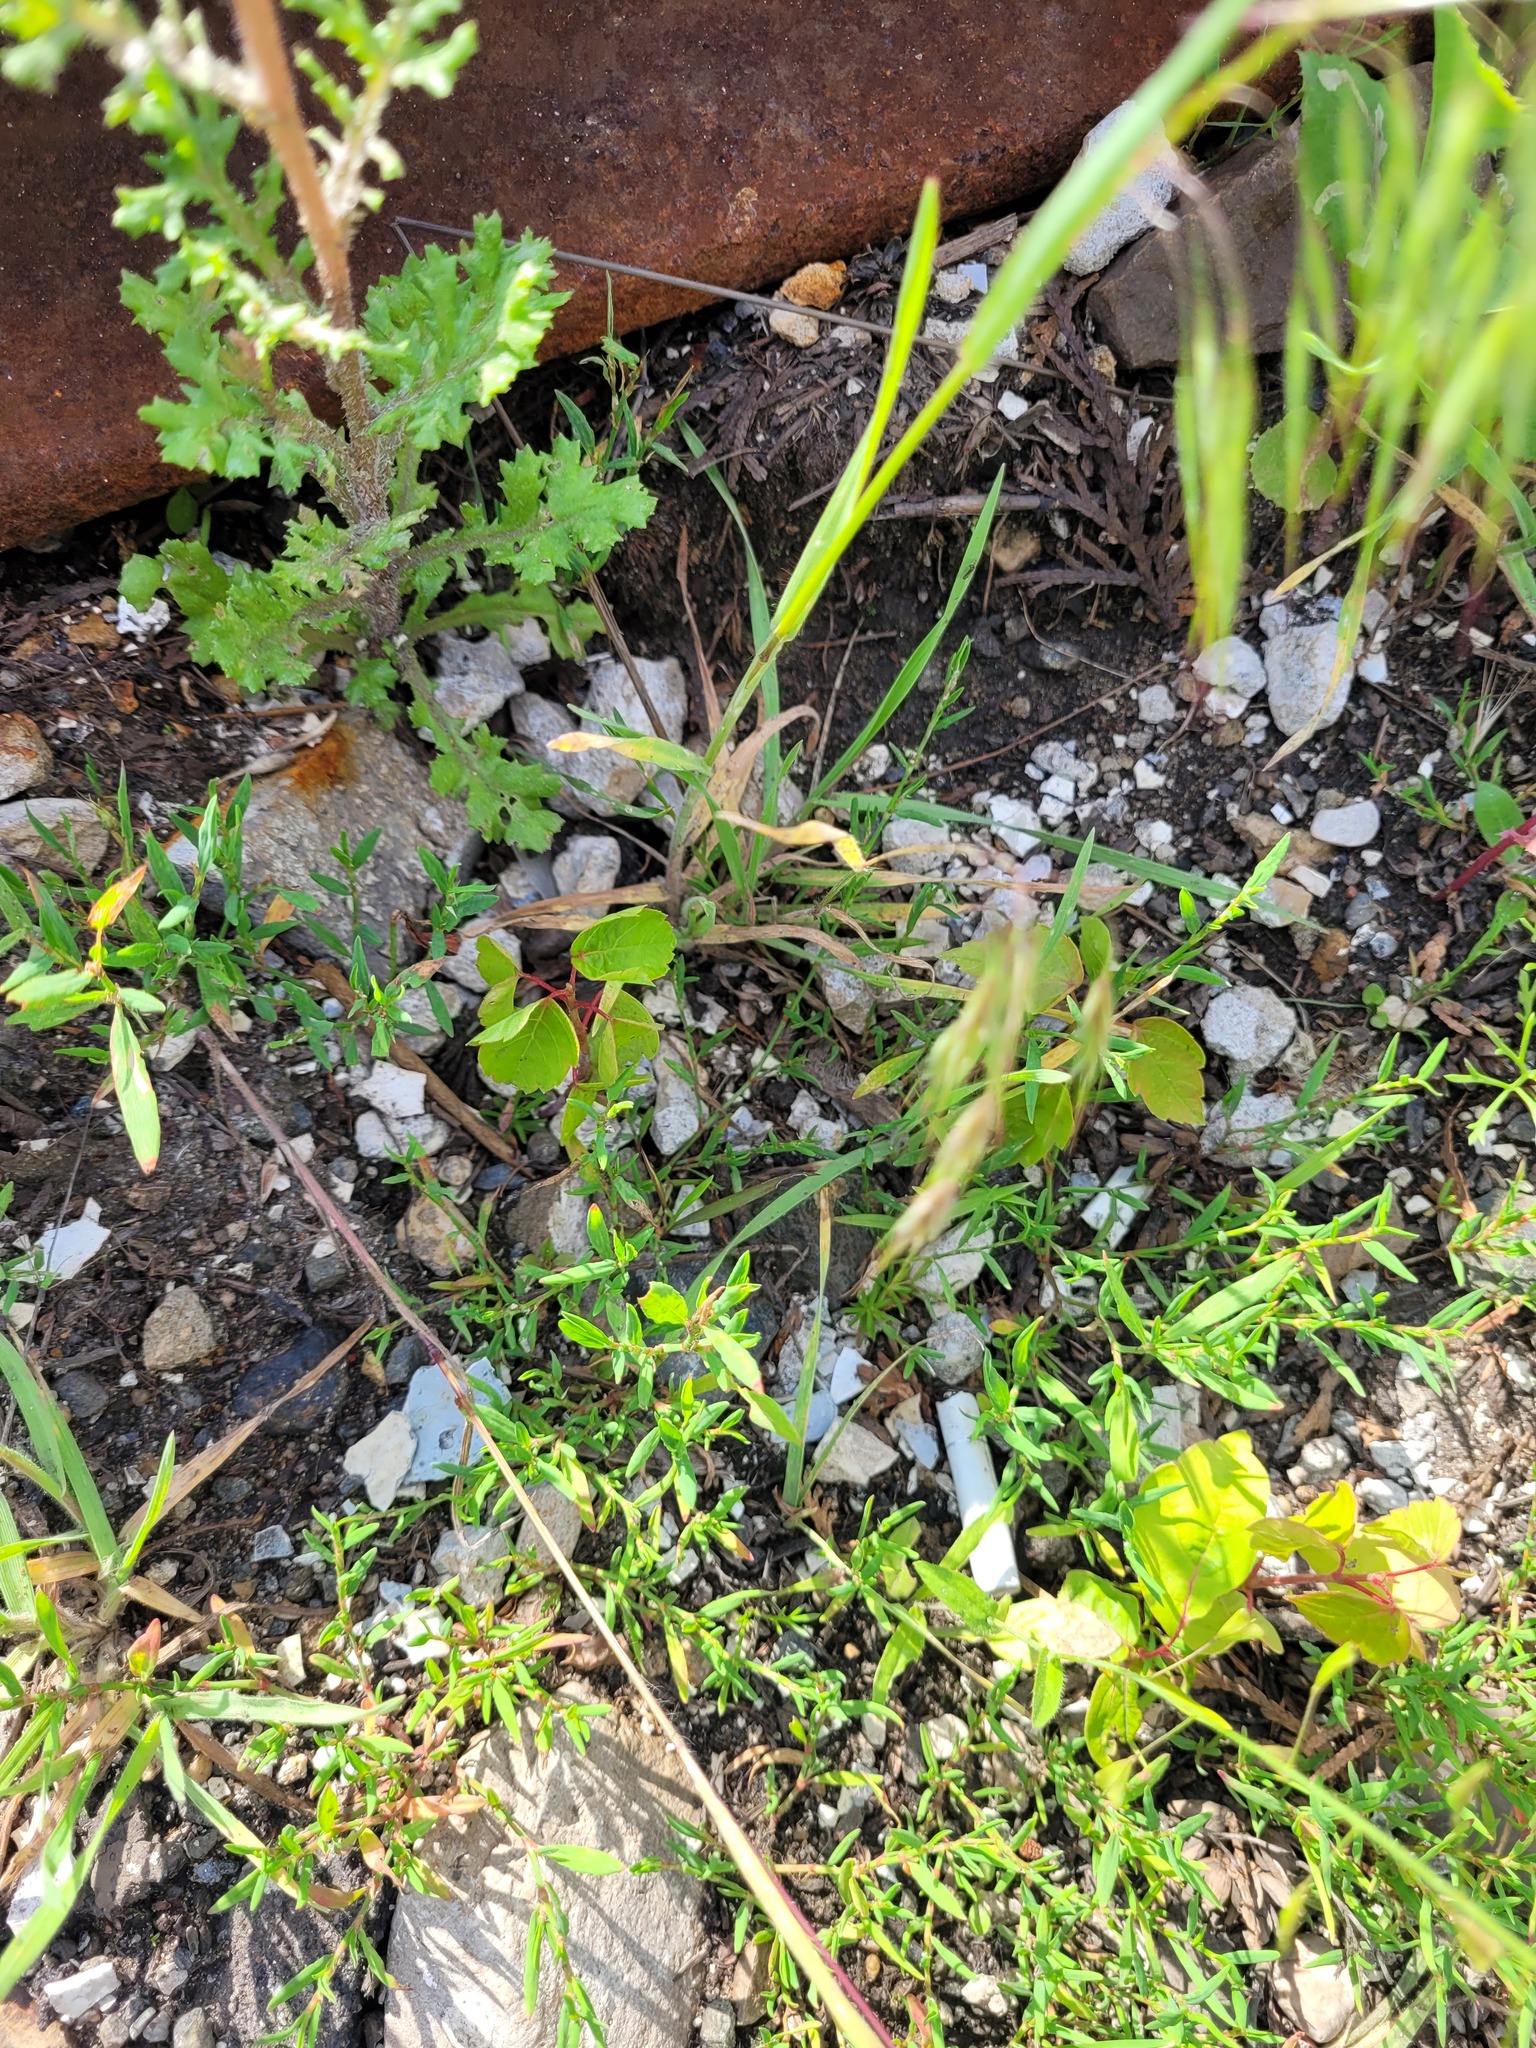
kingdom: Plantae
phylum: Tracheophyta
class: Magnoliopsida
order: Sapindales
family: Sapindaceae
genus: Acer
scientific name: Acer negundo
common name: Ashleaf maple
